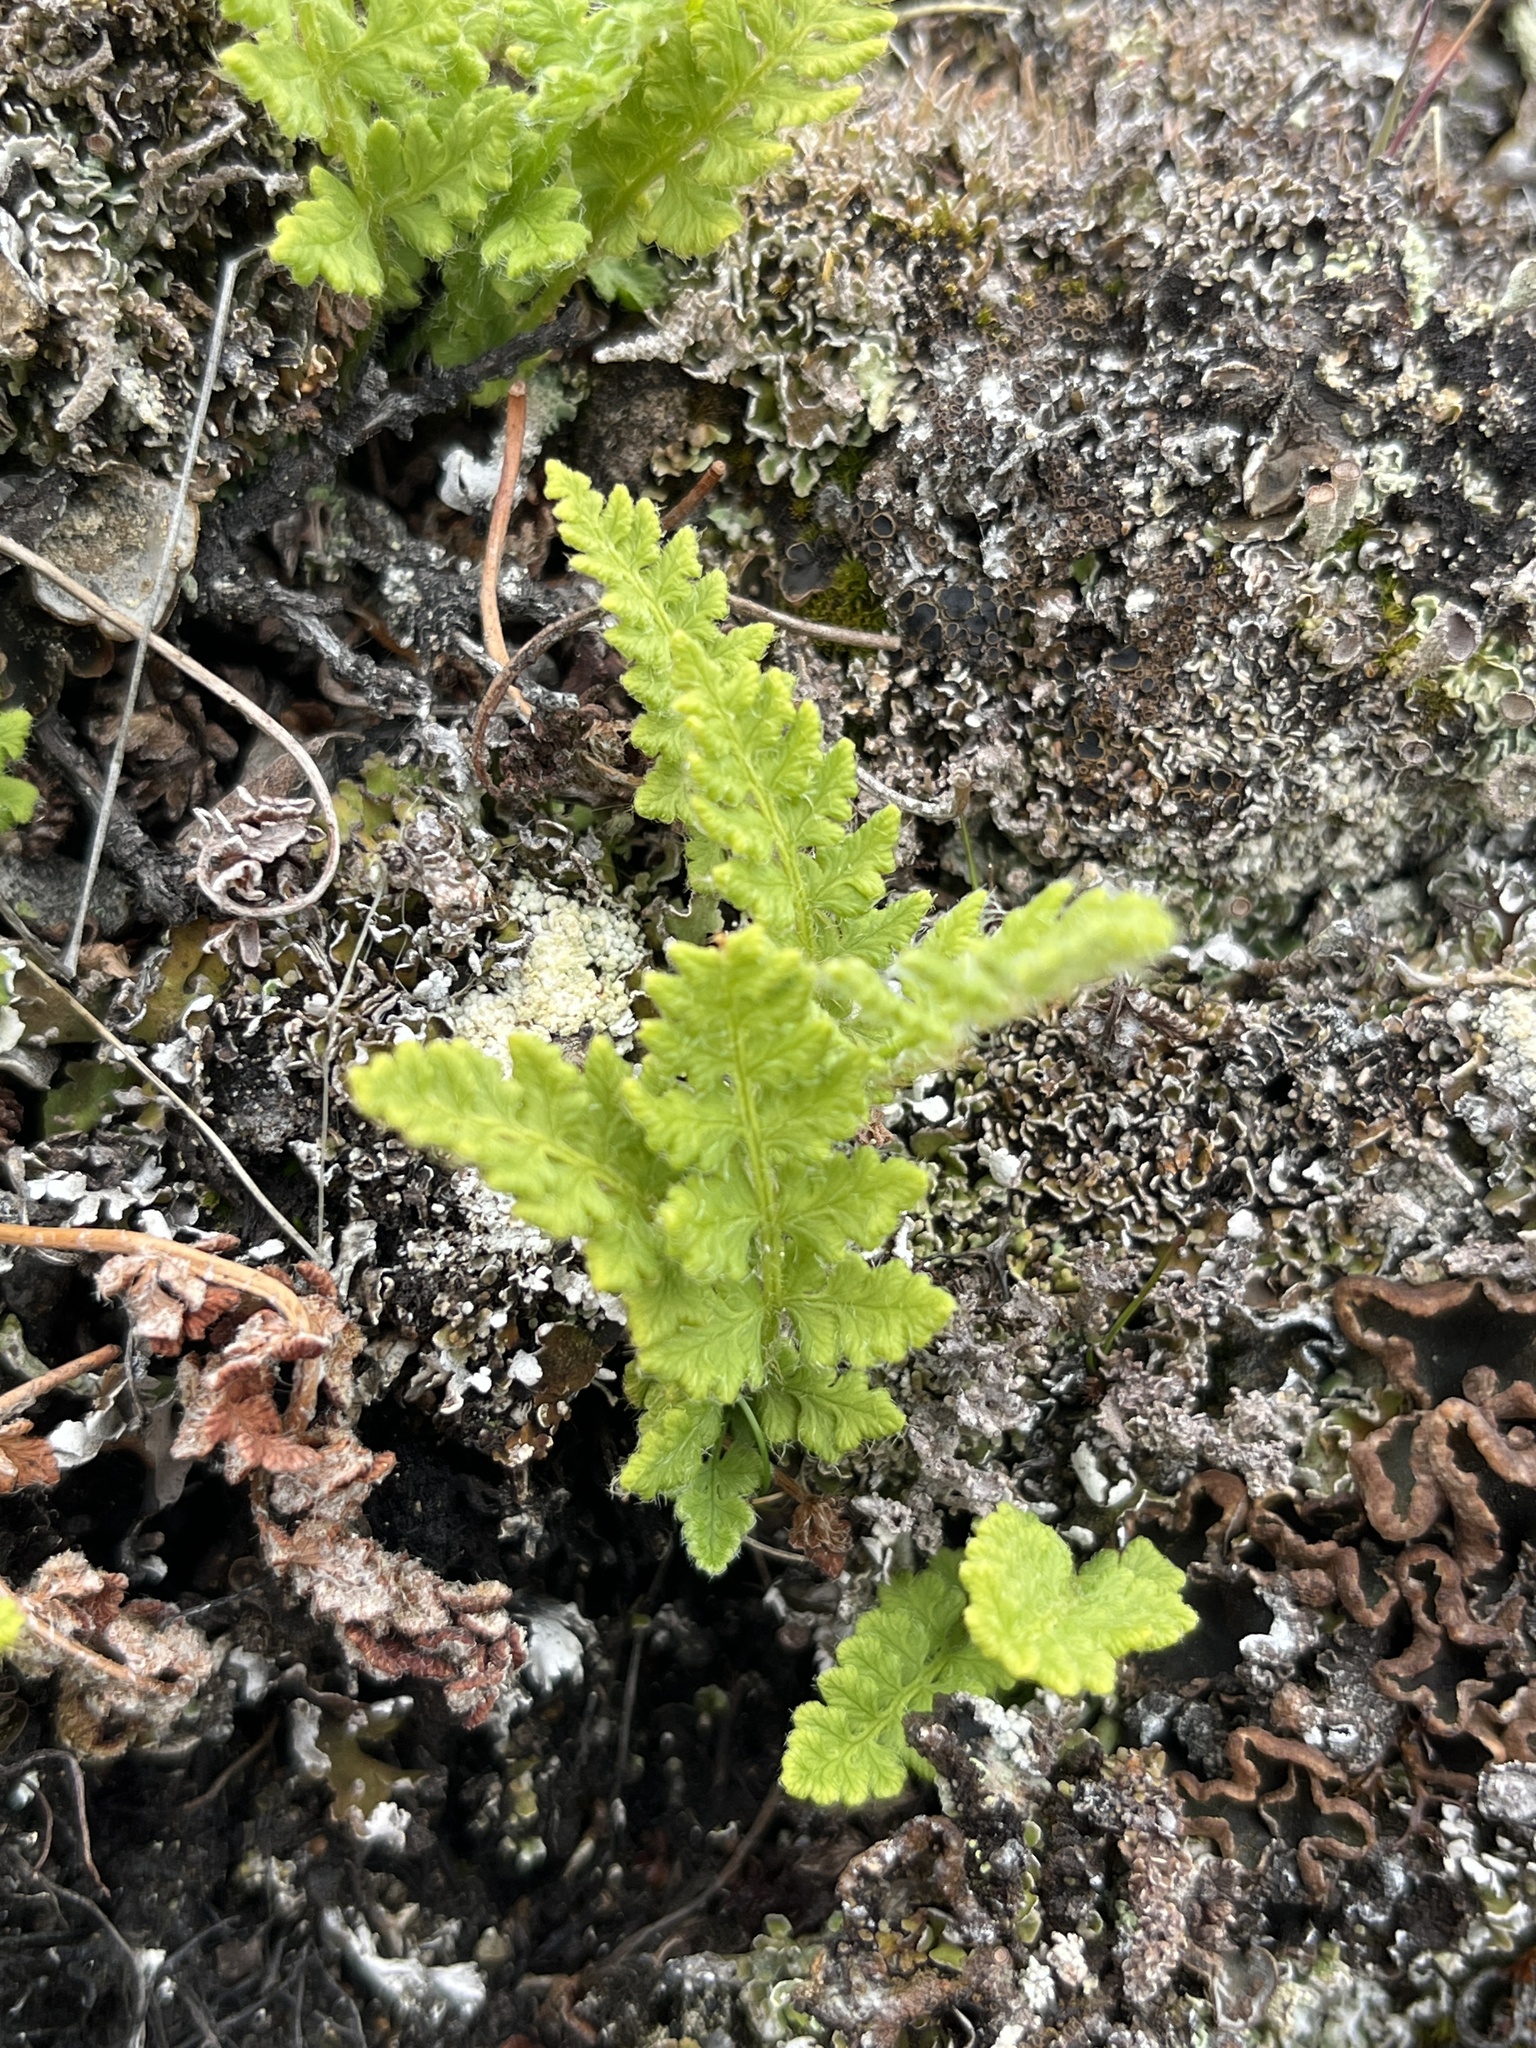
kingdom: Plantae
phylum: Tracheophyta
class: Polypodiopsida
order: Polypodiales
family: Woodsiaceae
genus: Woodsia
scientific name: Woodsia ilvensis
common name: Fragrant woodsia
